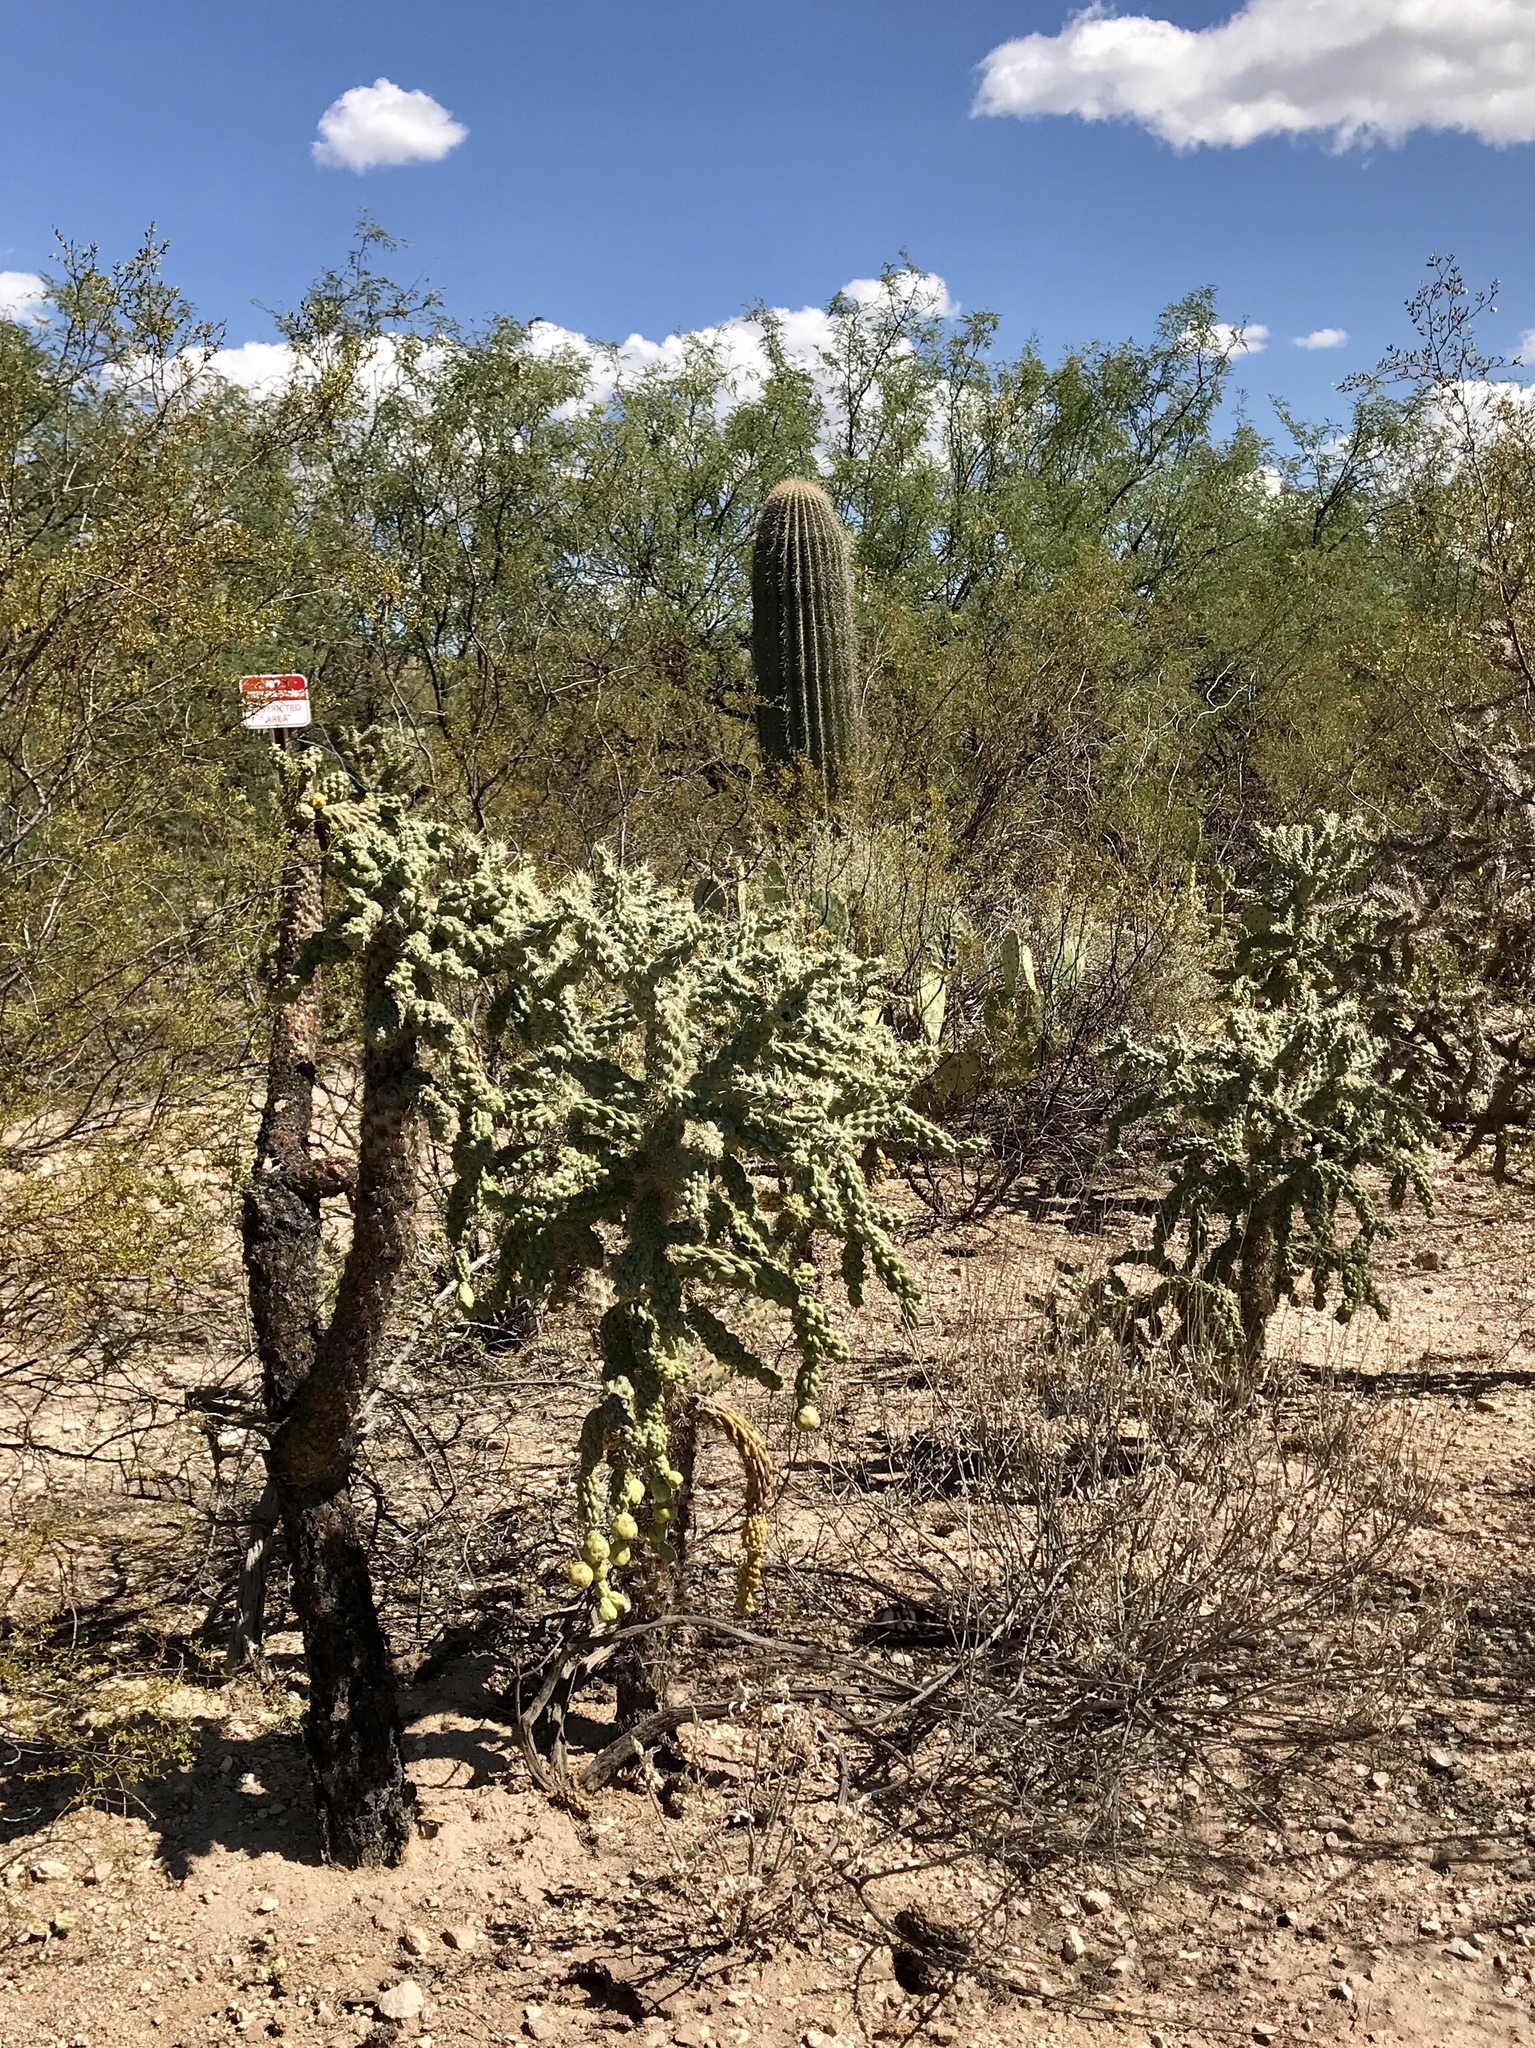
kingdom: Plantae
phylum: Tracheophyta
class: Magnoliopsida
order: Caryophyllales
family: Cactaceae
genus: Cylindropuntia
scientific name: Cylindropuntia fulgida
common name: Jumping cholla
